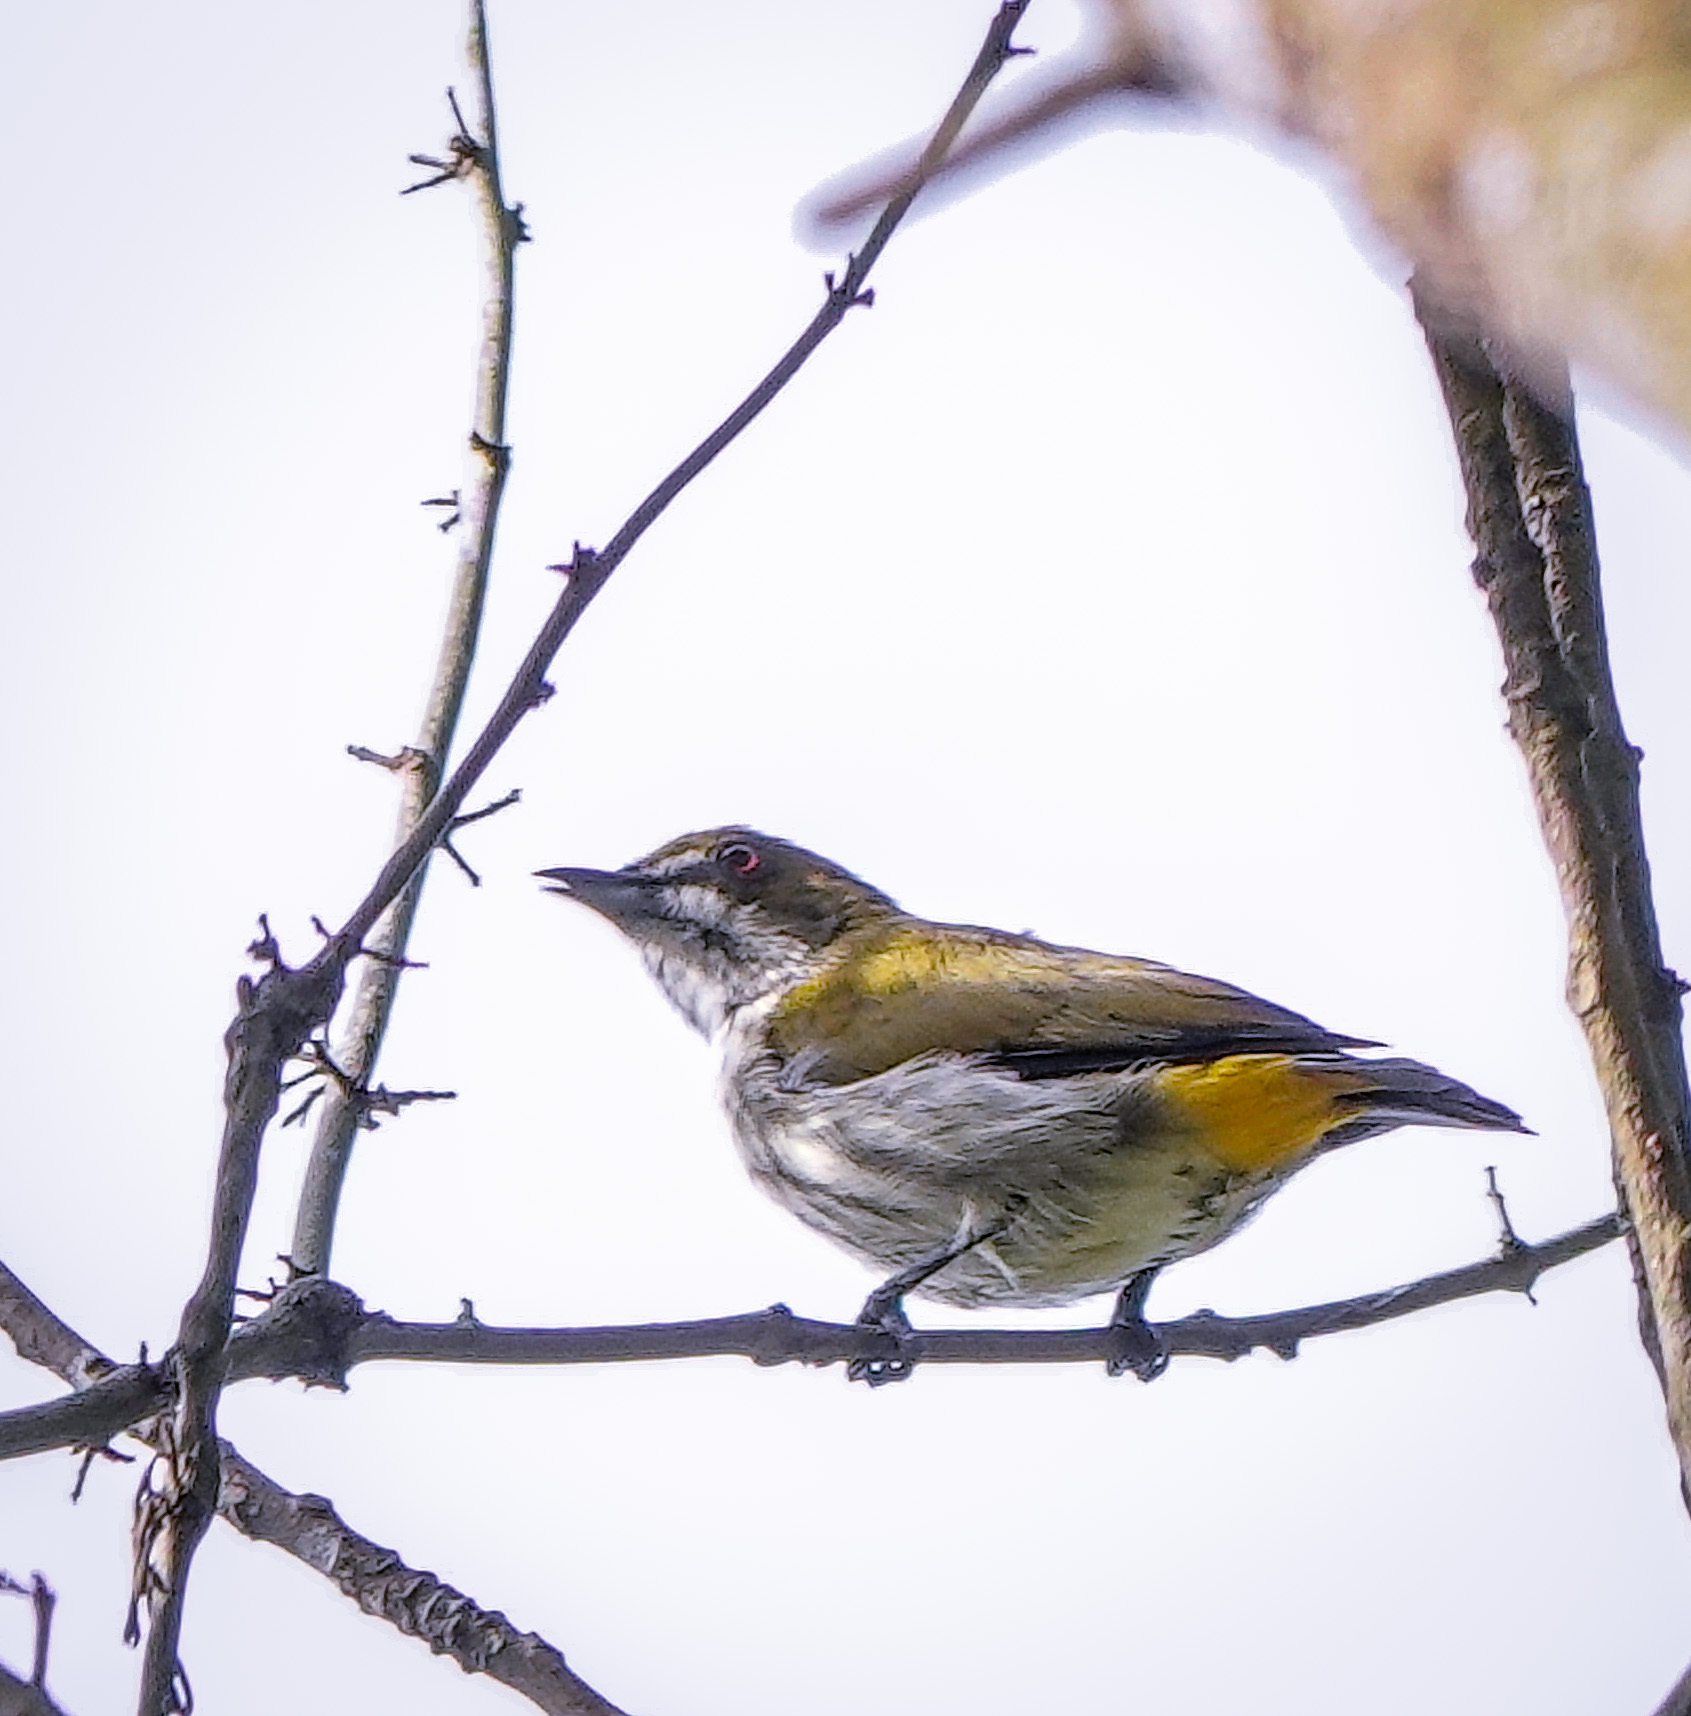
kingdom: Animalia
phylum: Chordata
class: Aves
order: Passeriformes
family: Dicaeidae
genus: Dicaeum
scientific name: Dicaeum chrysorrheum
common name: Yellow-vented flowerpecker
